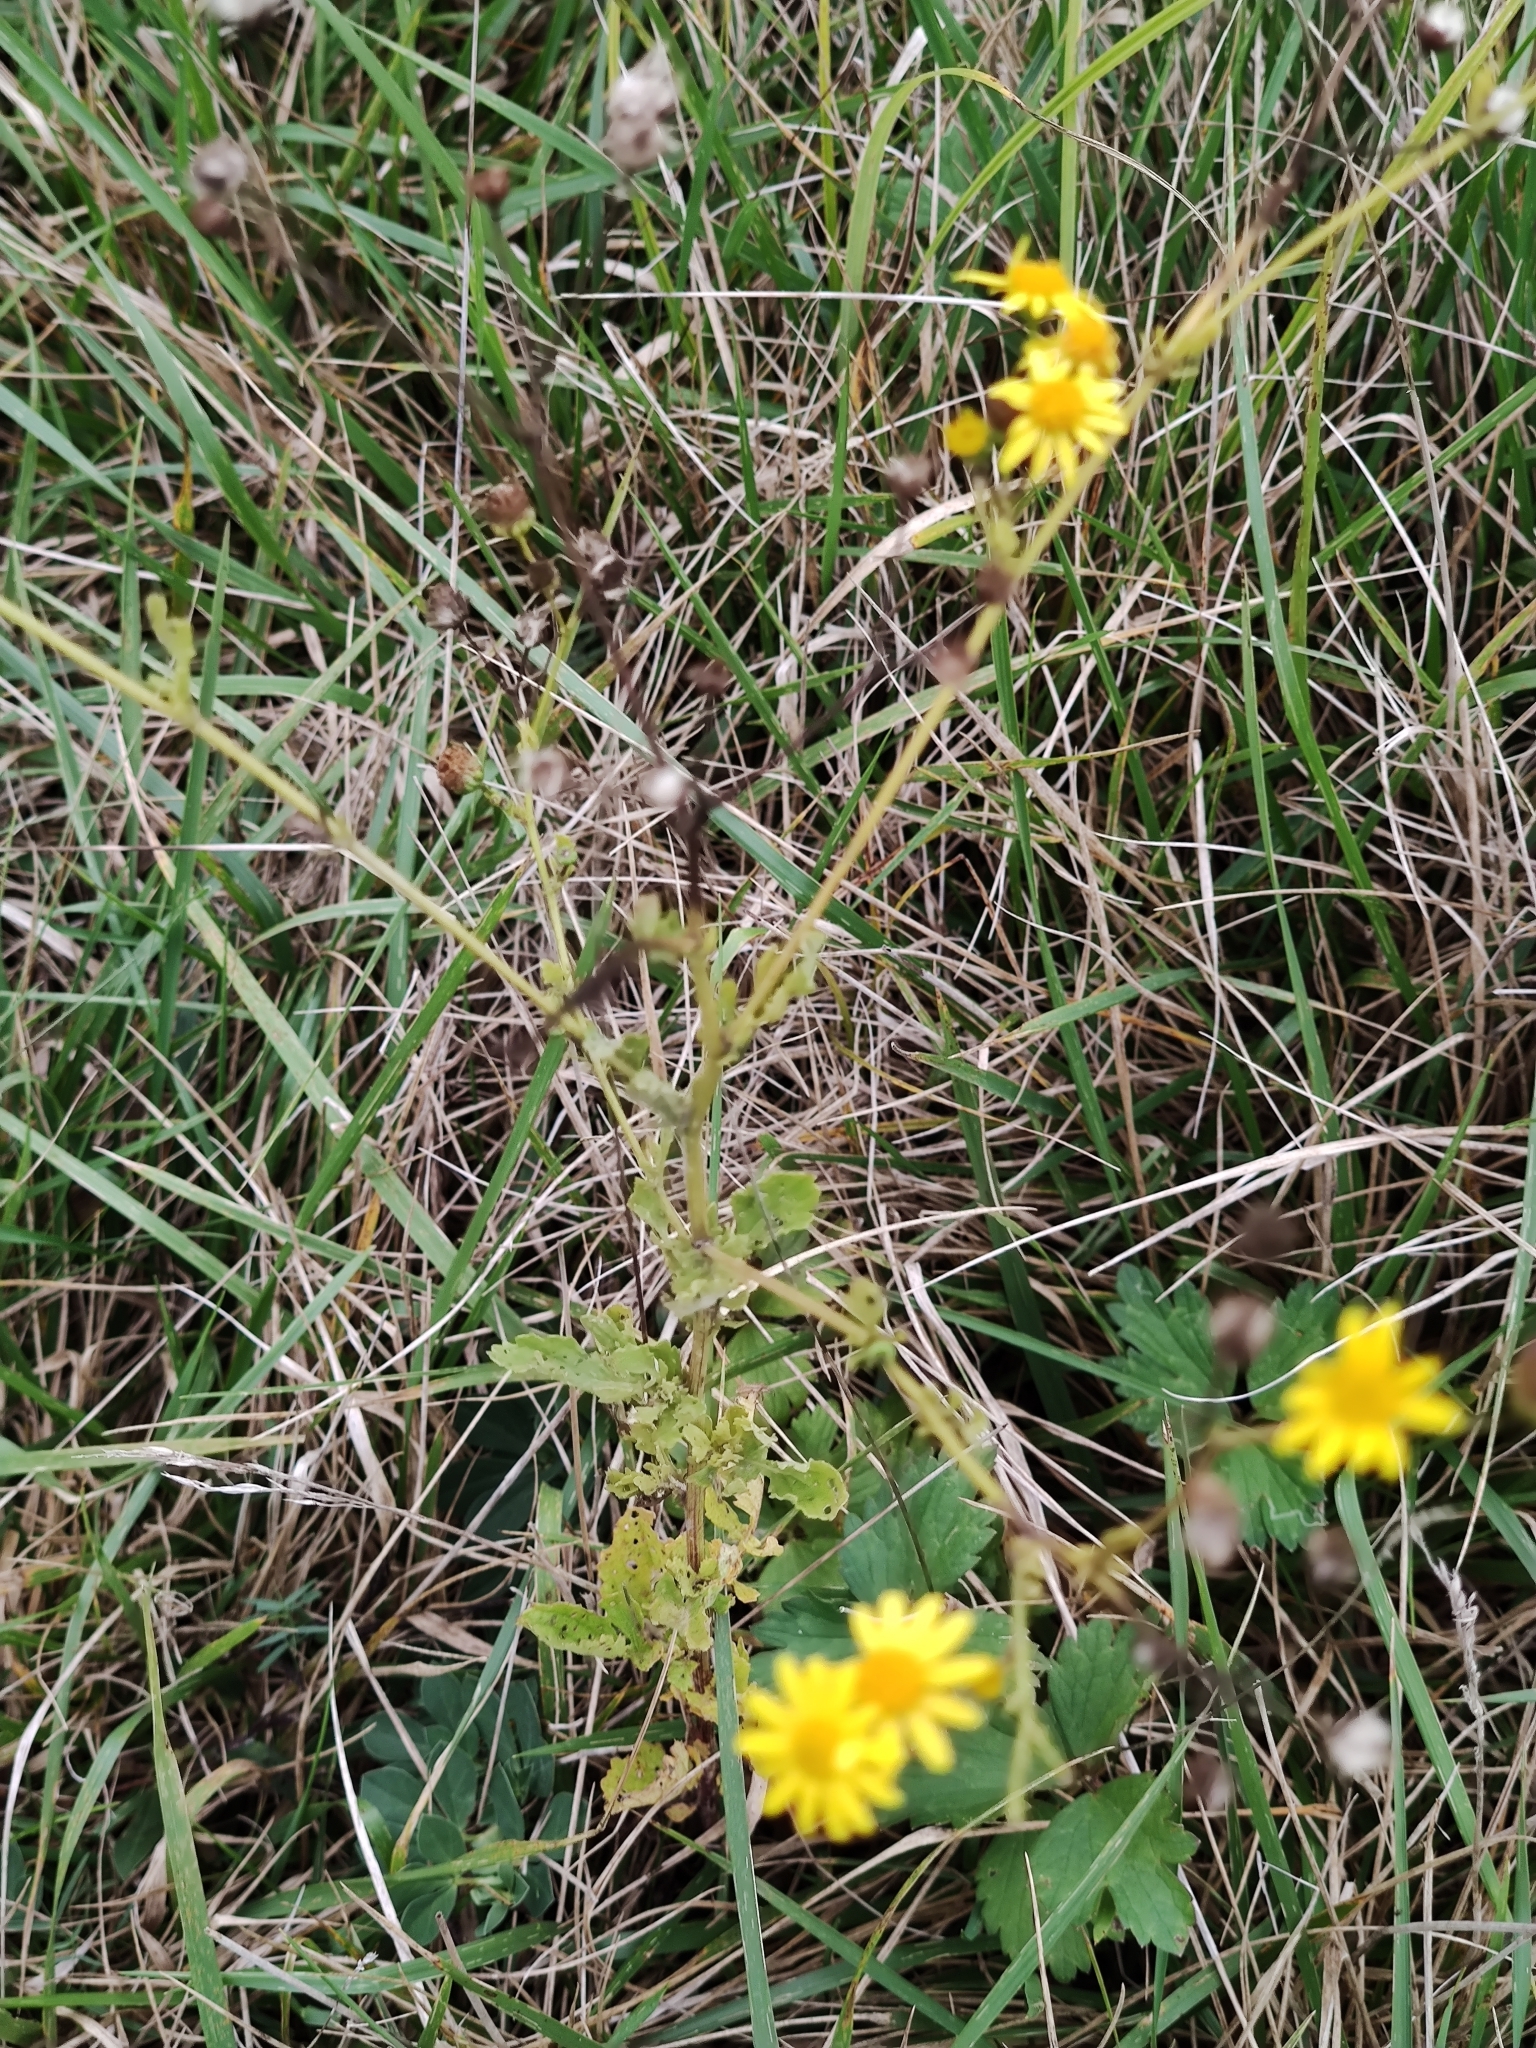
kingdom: Plantae
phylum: Tracheophyta
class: Magnoliopsida
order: Asterales
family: Asteraceae
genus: Jacobaea
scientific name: Jacobaea erratica
